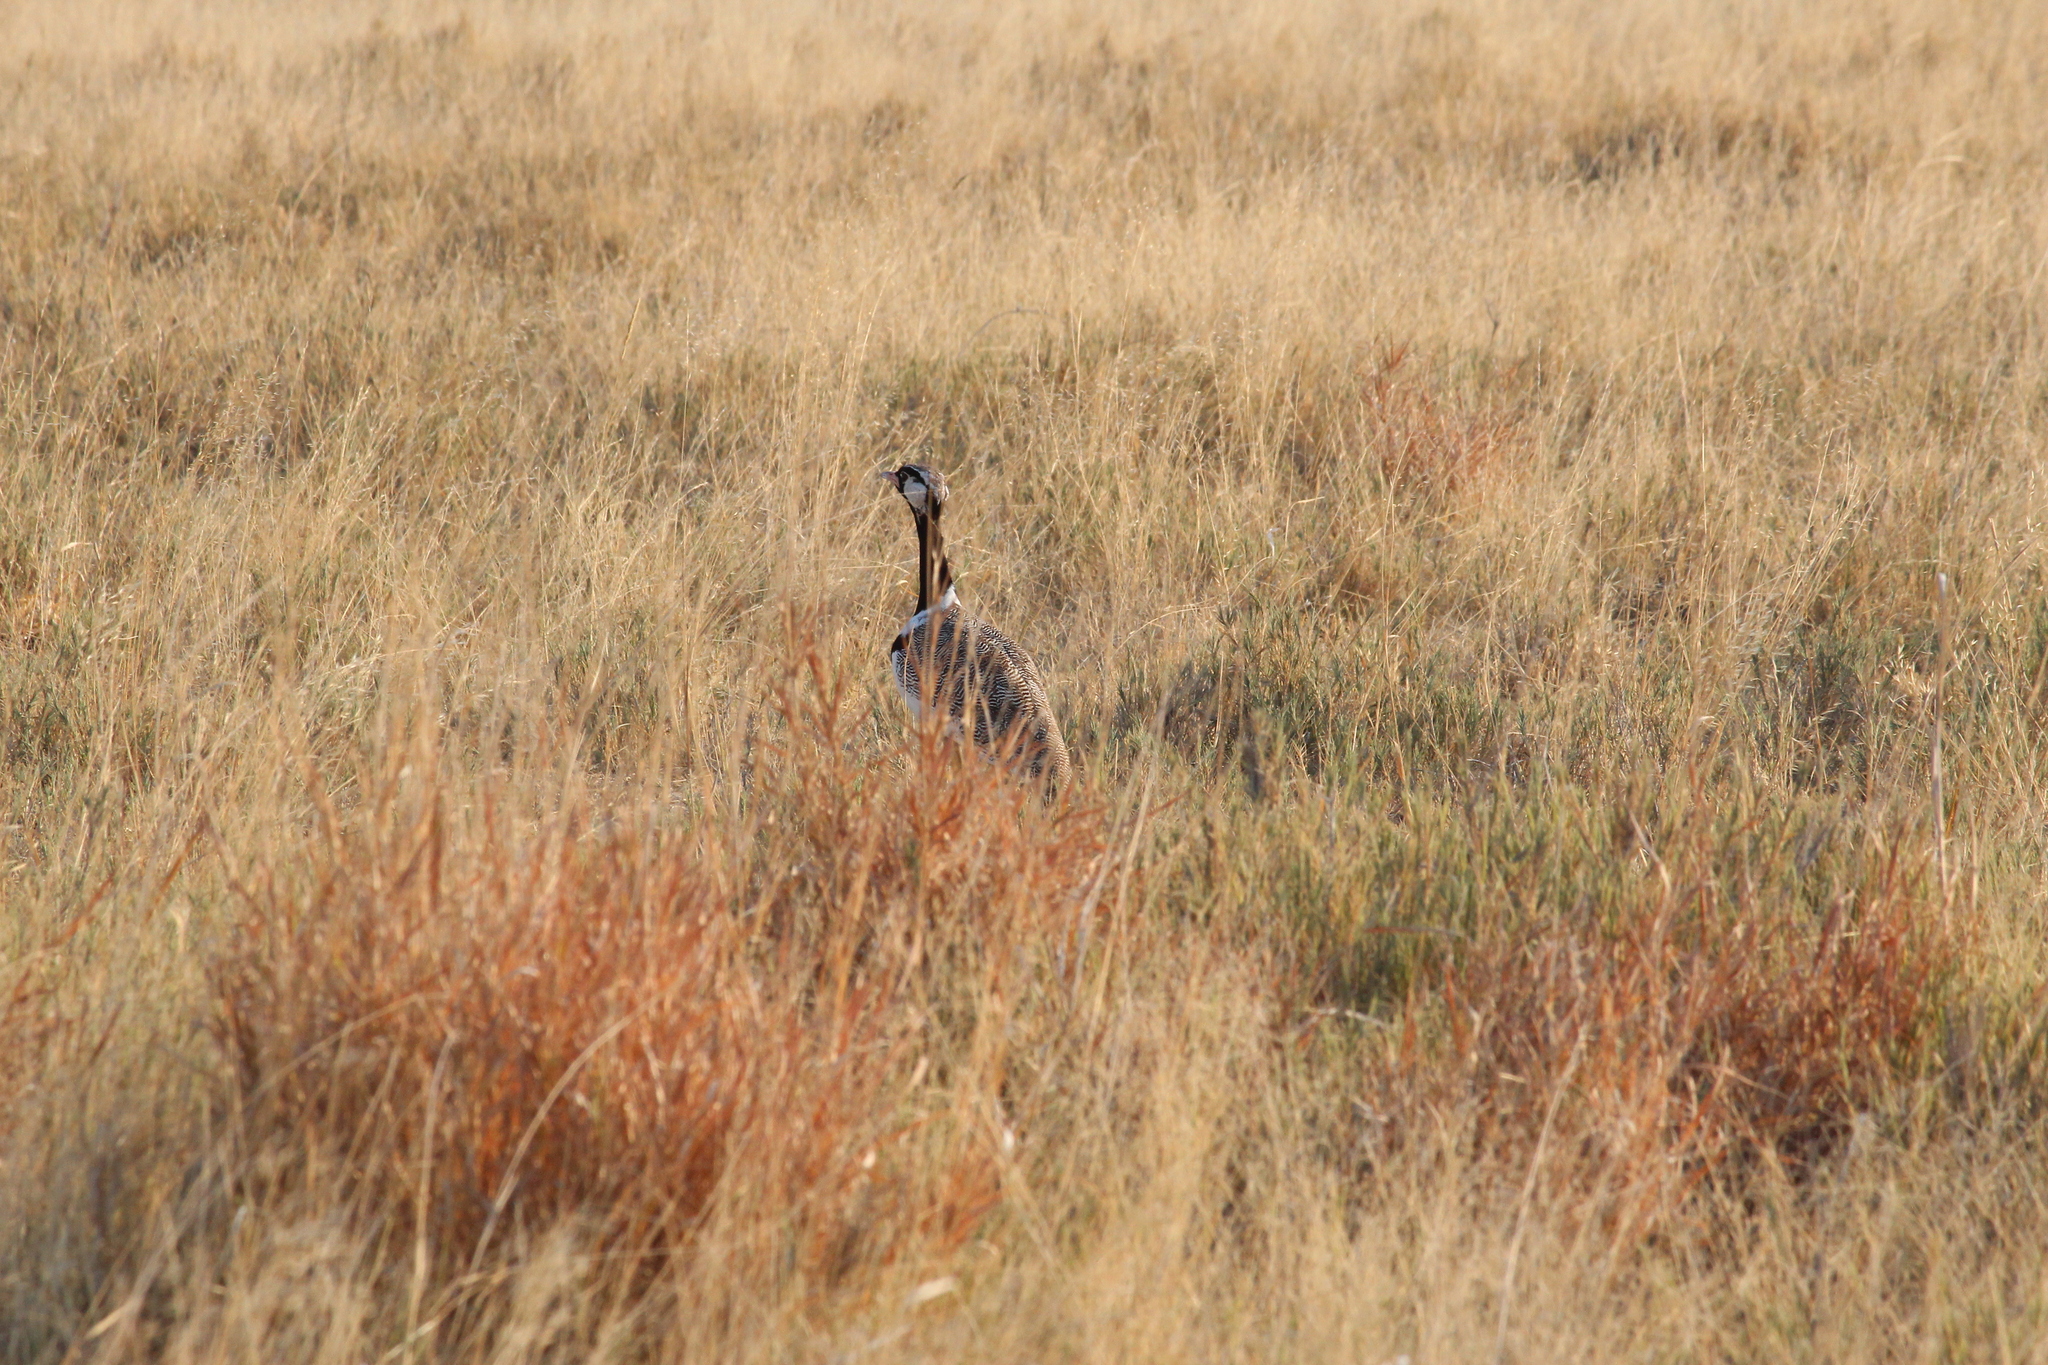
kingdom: Animalia
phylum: Chordata
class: Aves
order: Otidiformes
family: Otididae
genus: Afrotis
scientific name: Afrotis afraoides
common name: Northern black korhaan
